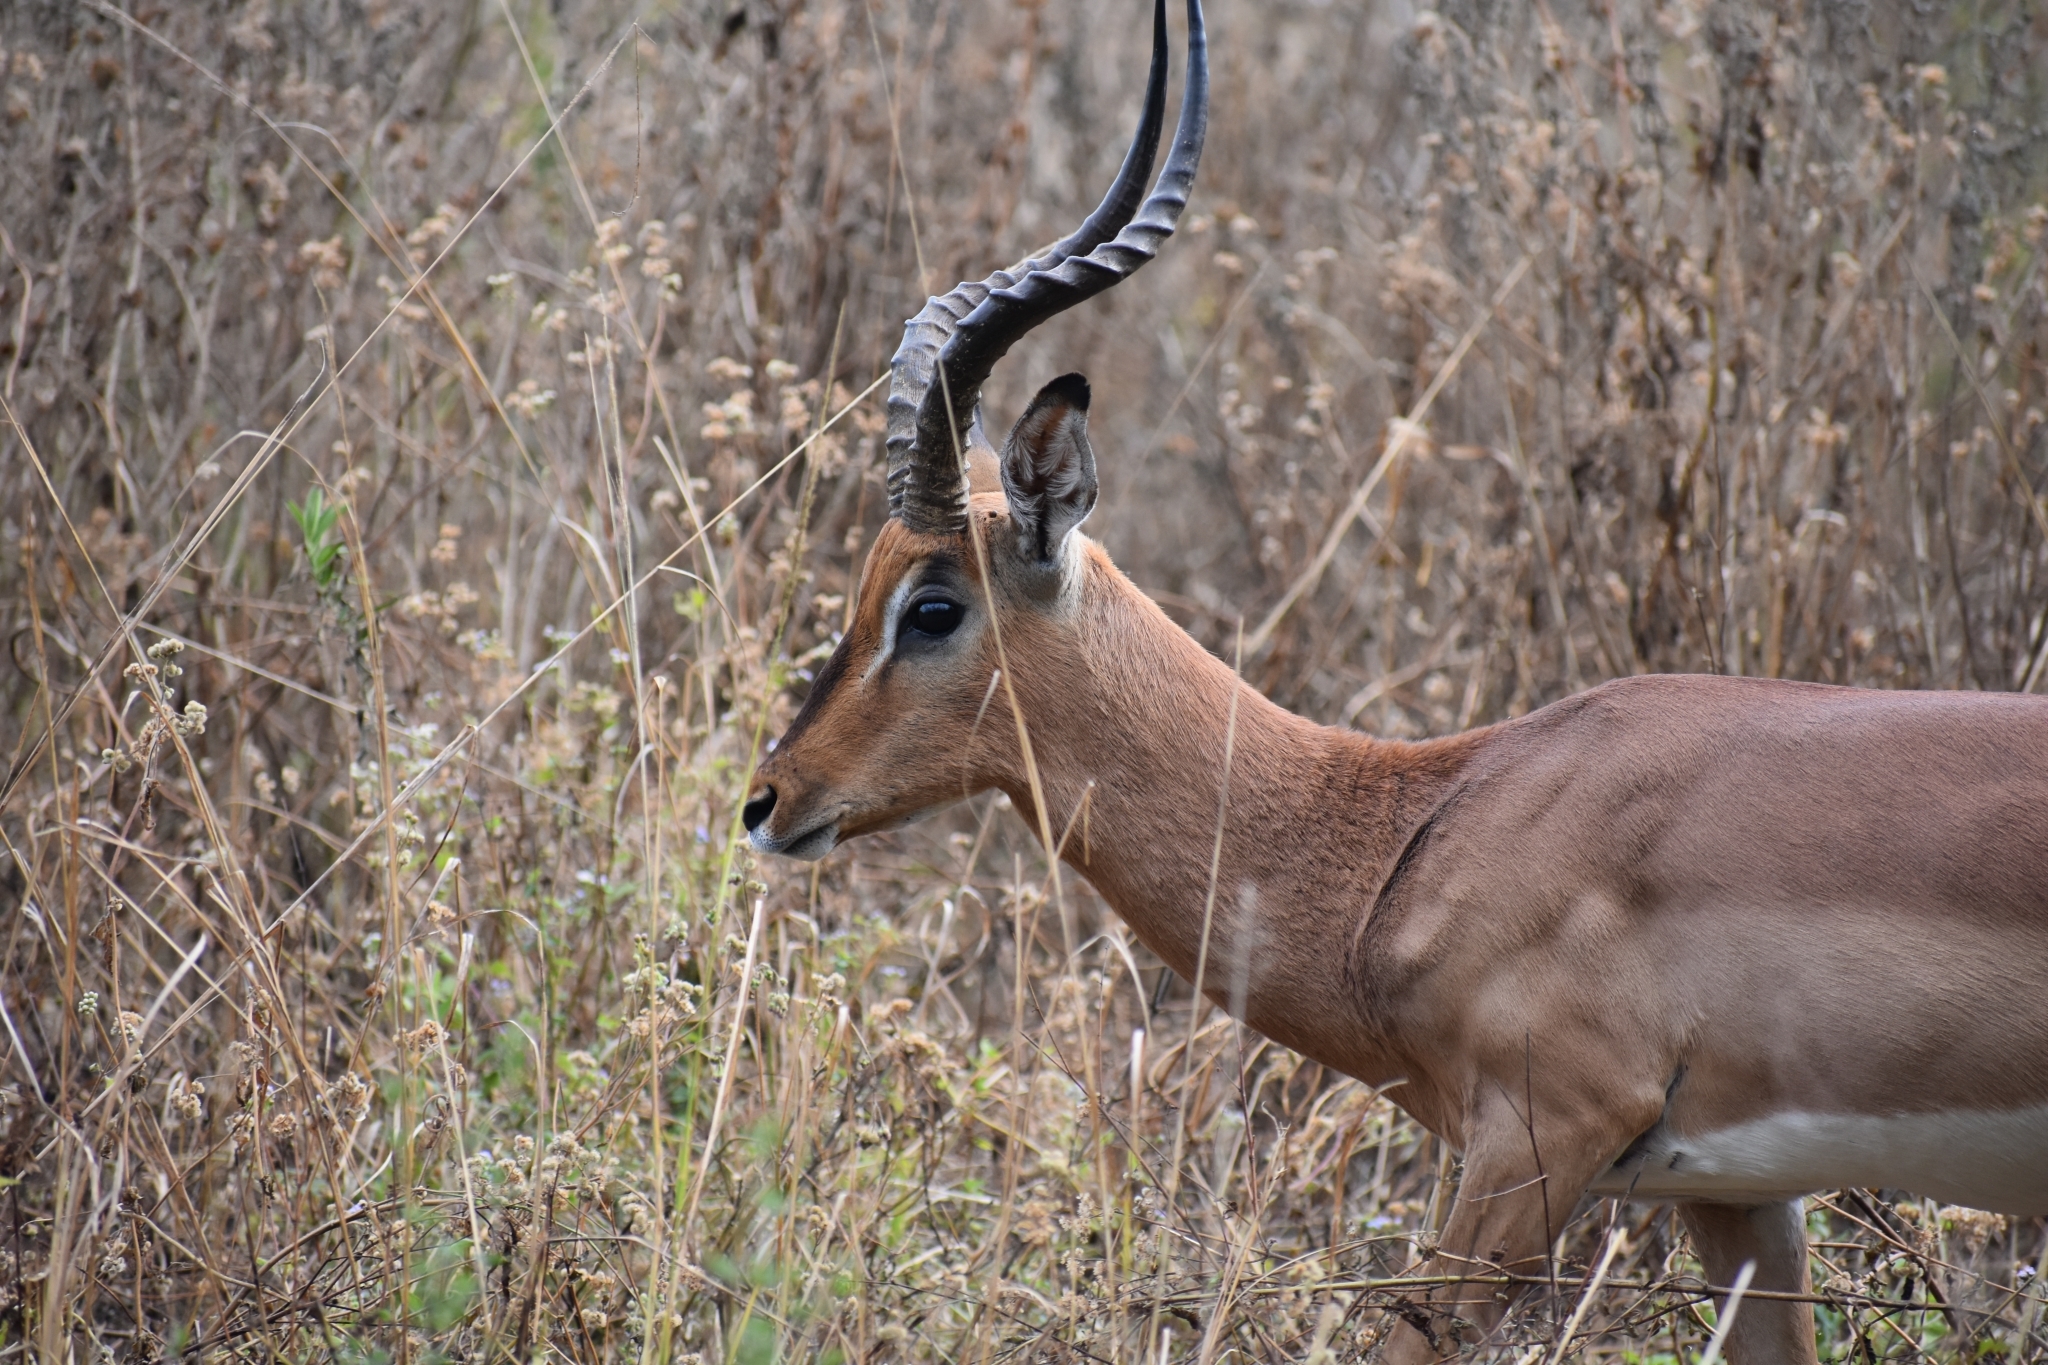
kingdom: Animalia
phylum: Chordata
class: Mammalia
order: Artiodactyla
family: Bovidae
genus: Aepyceros
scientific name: Aepyceros melampus
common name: Impala
